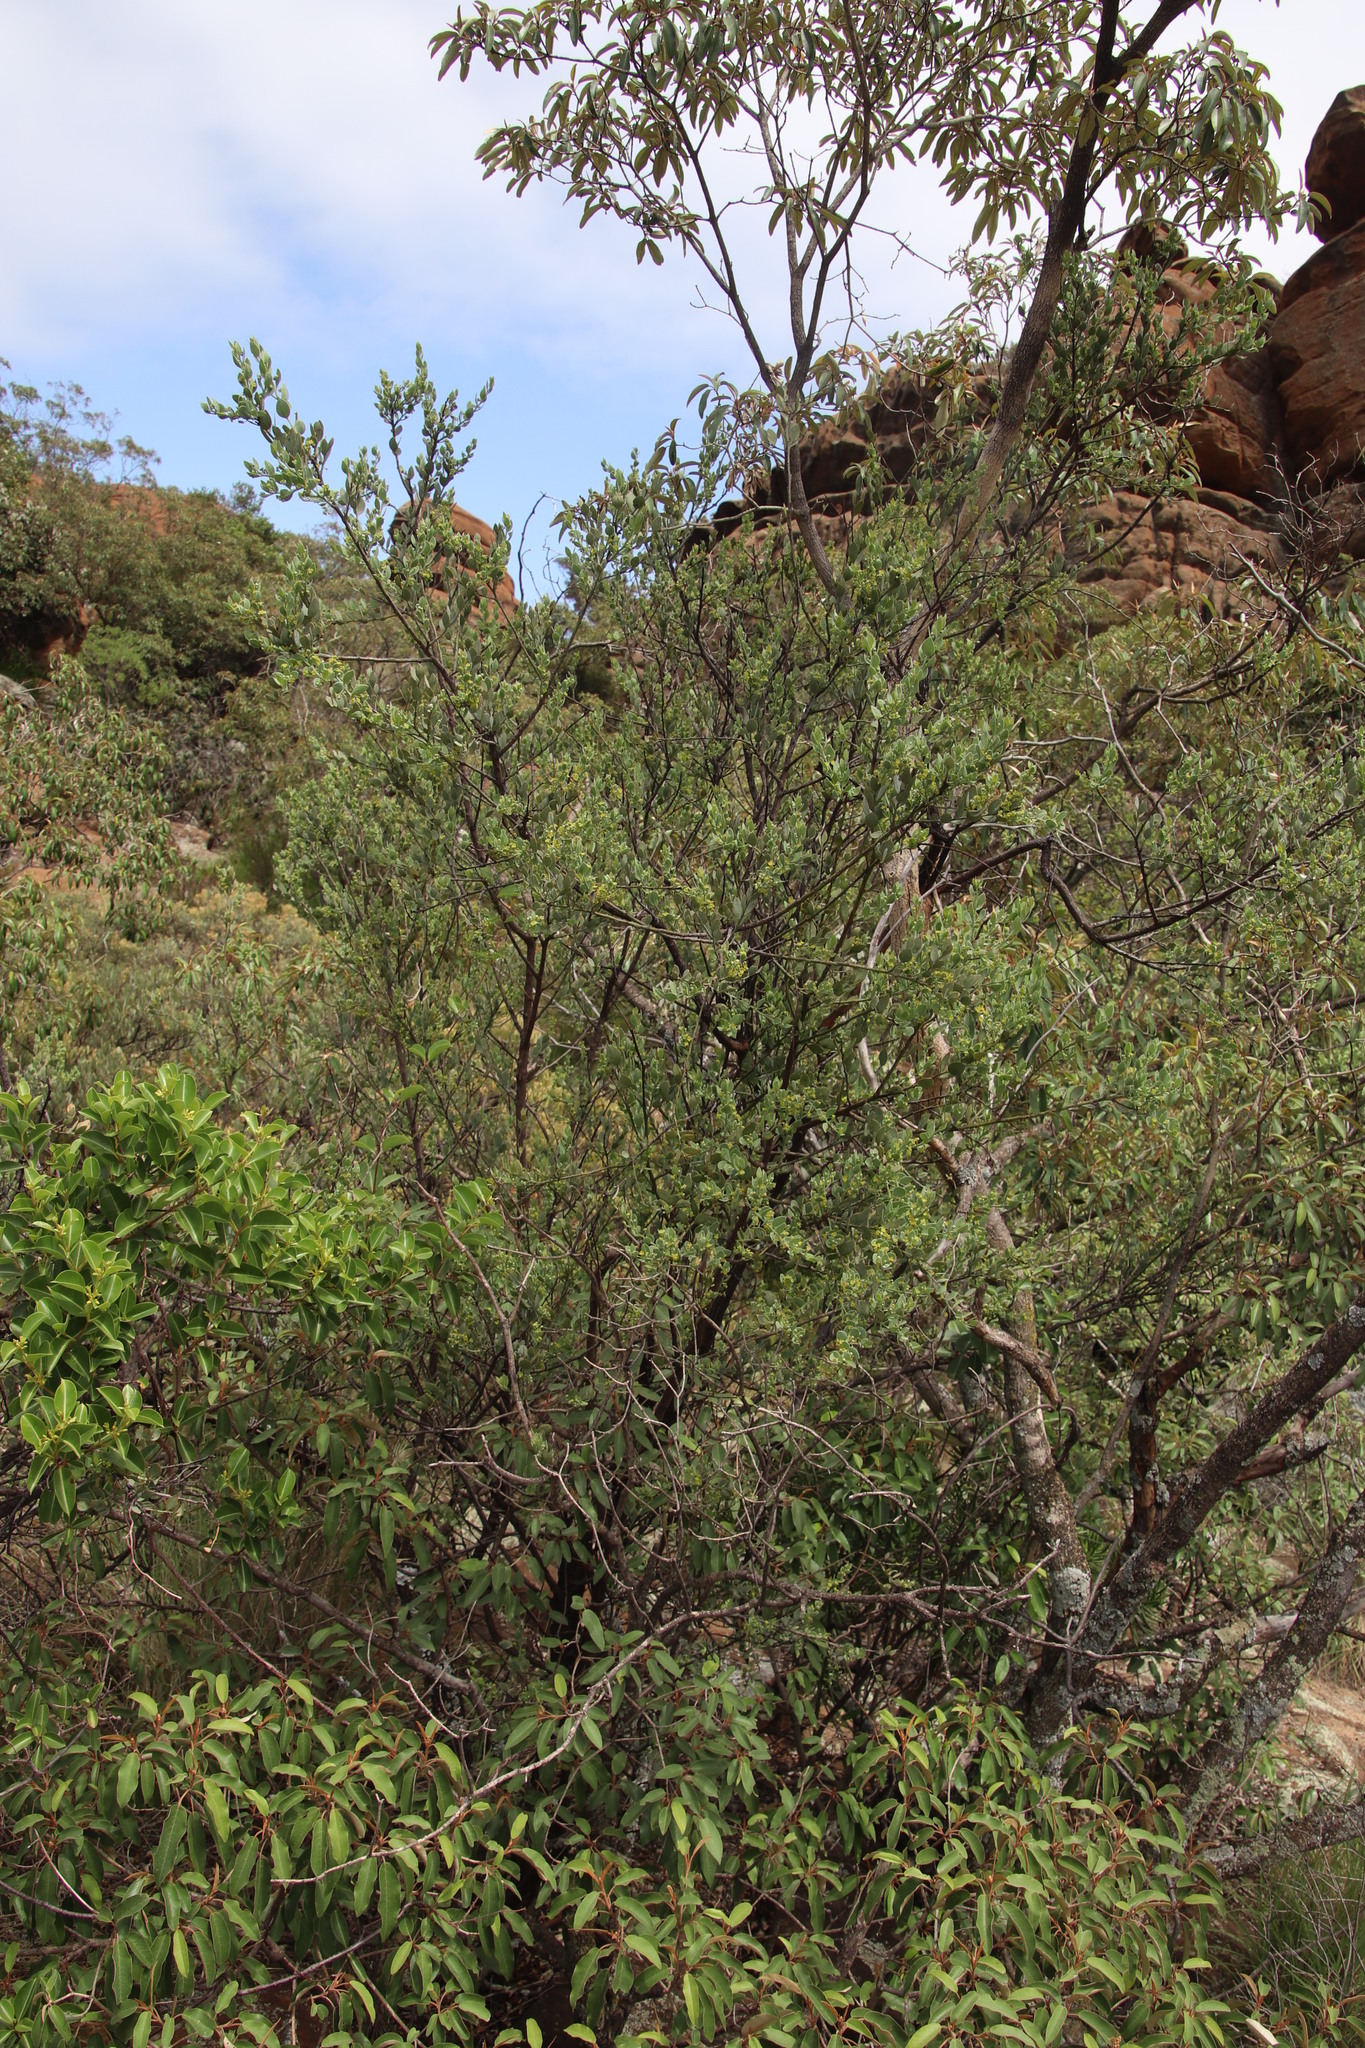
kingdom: Plantae
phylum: Tracheophyta
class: Magnoliopsida
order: Santalales
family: Santalaceae
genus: Osyris
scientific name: Osyris lanceolata
